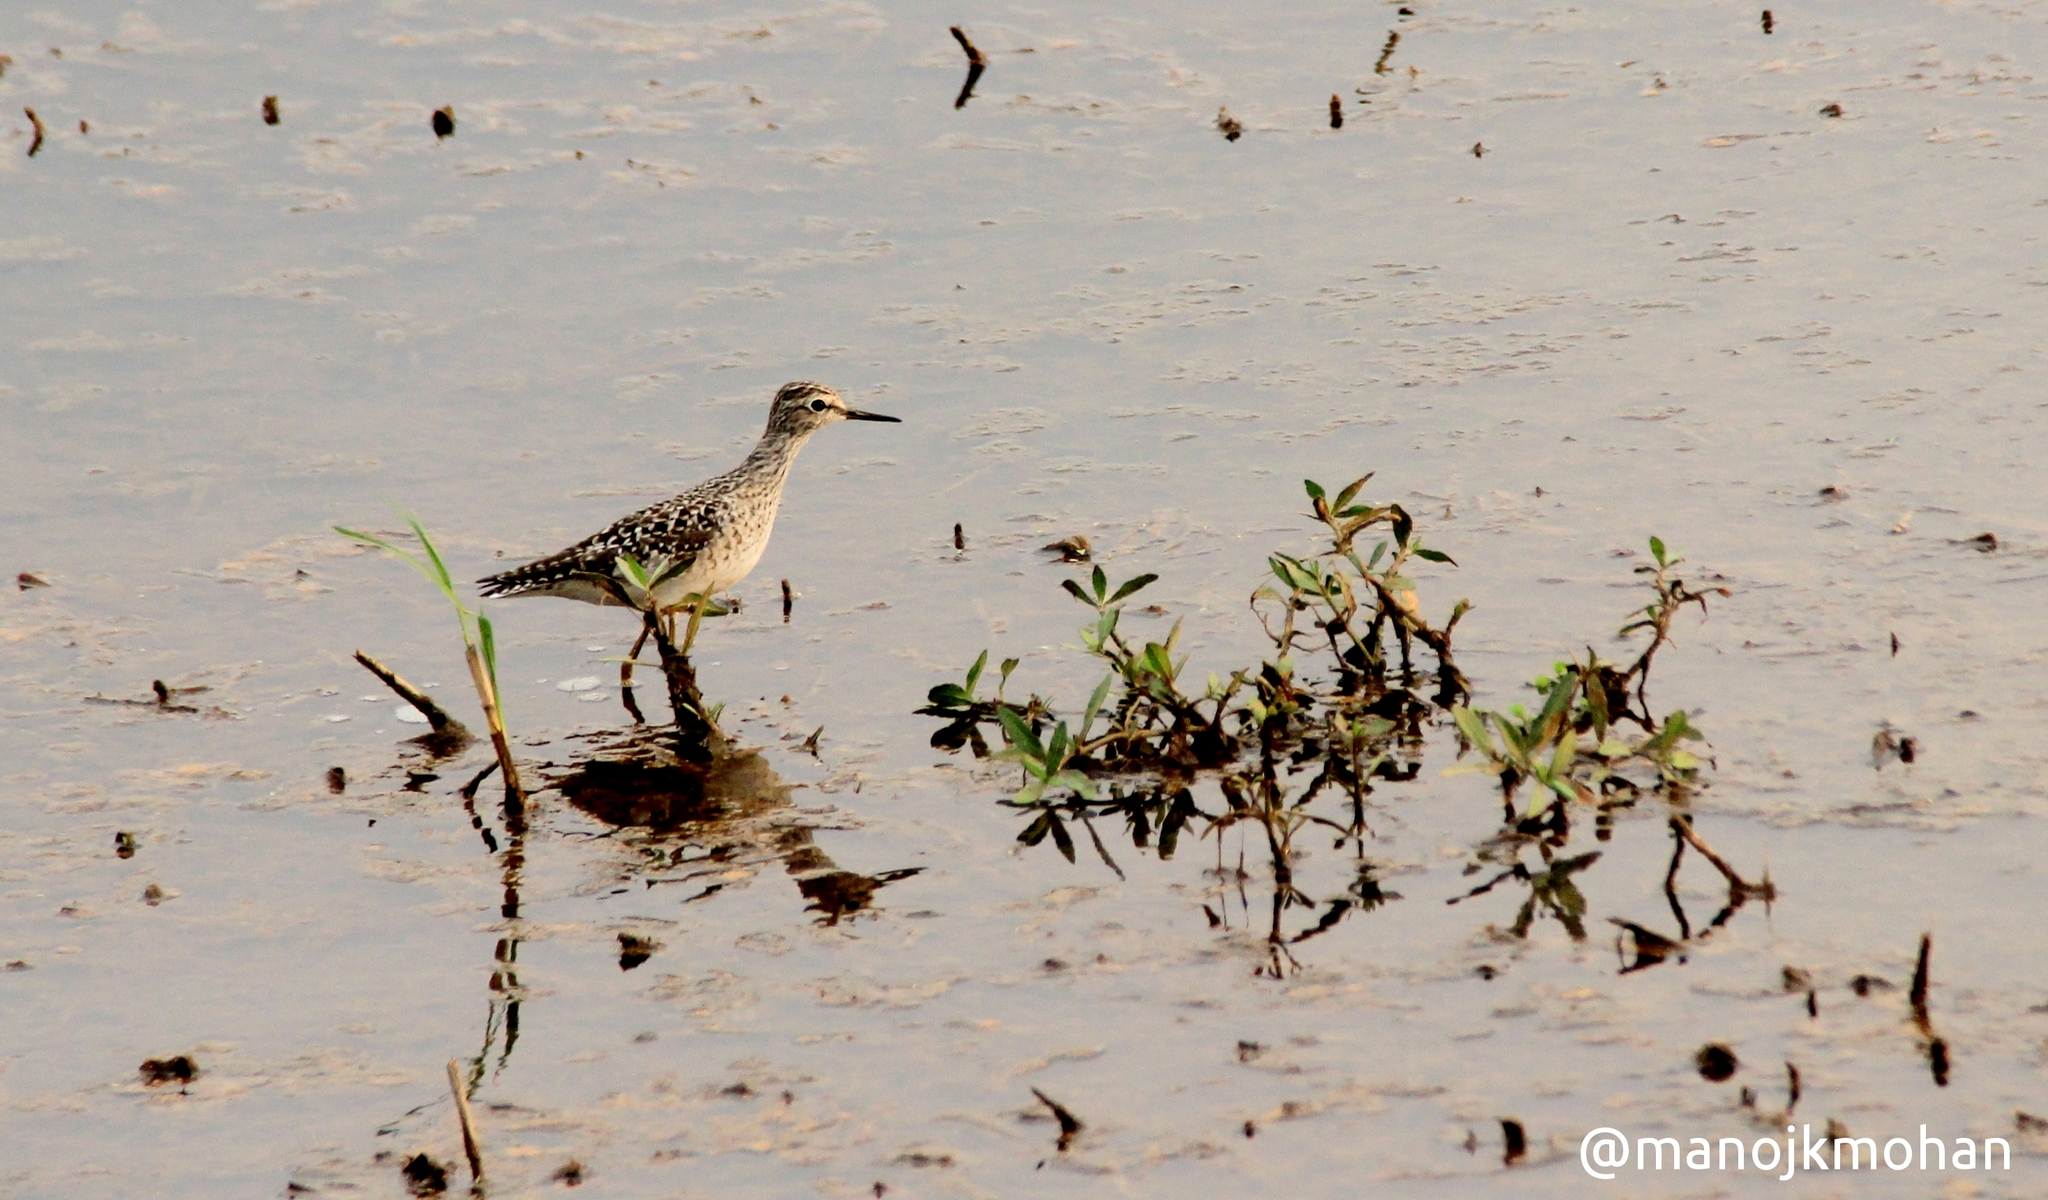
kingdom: Animalia
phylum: Chordata
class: Aves
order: Charadriiformes
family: Scolopacidae
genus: Tringa
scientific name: Tringa glareola
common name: Wood sandpiper
